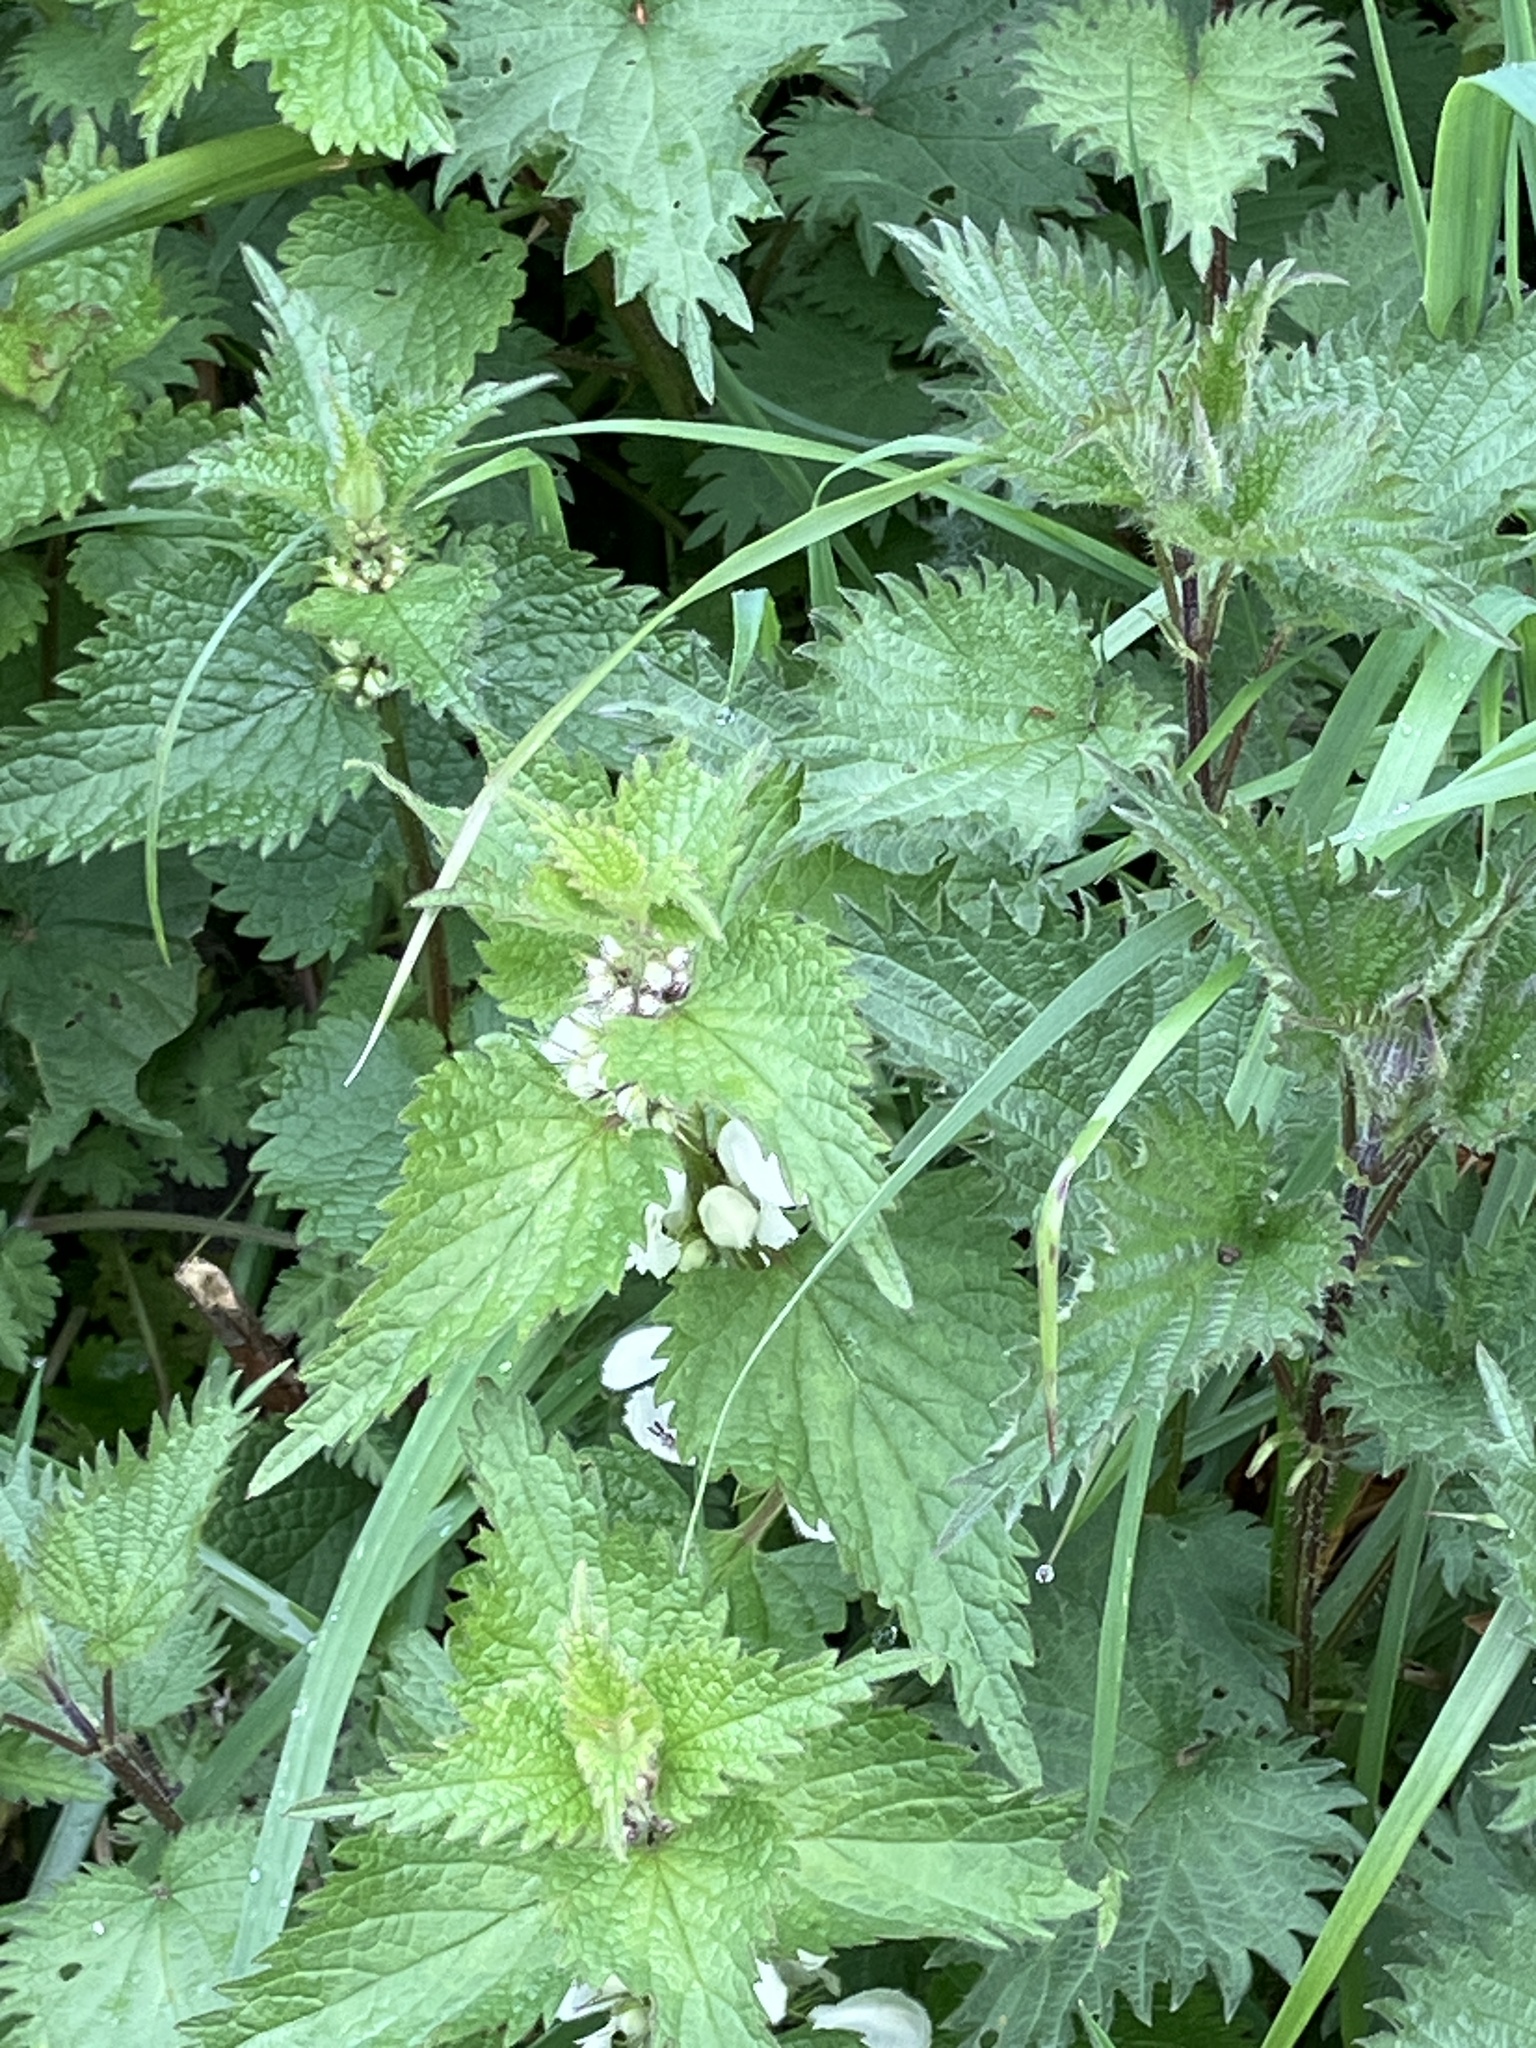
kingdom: Plantae
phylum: Tracheophyta
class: Magnoliopsida
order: Lamiales
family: Lamiaceae
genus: Lamium
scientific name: Lamium album
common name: White dead-nettle
